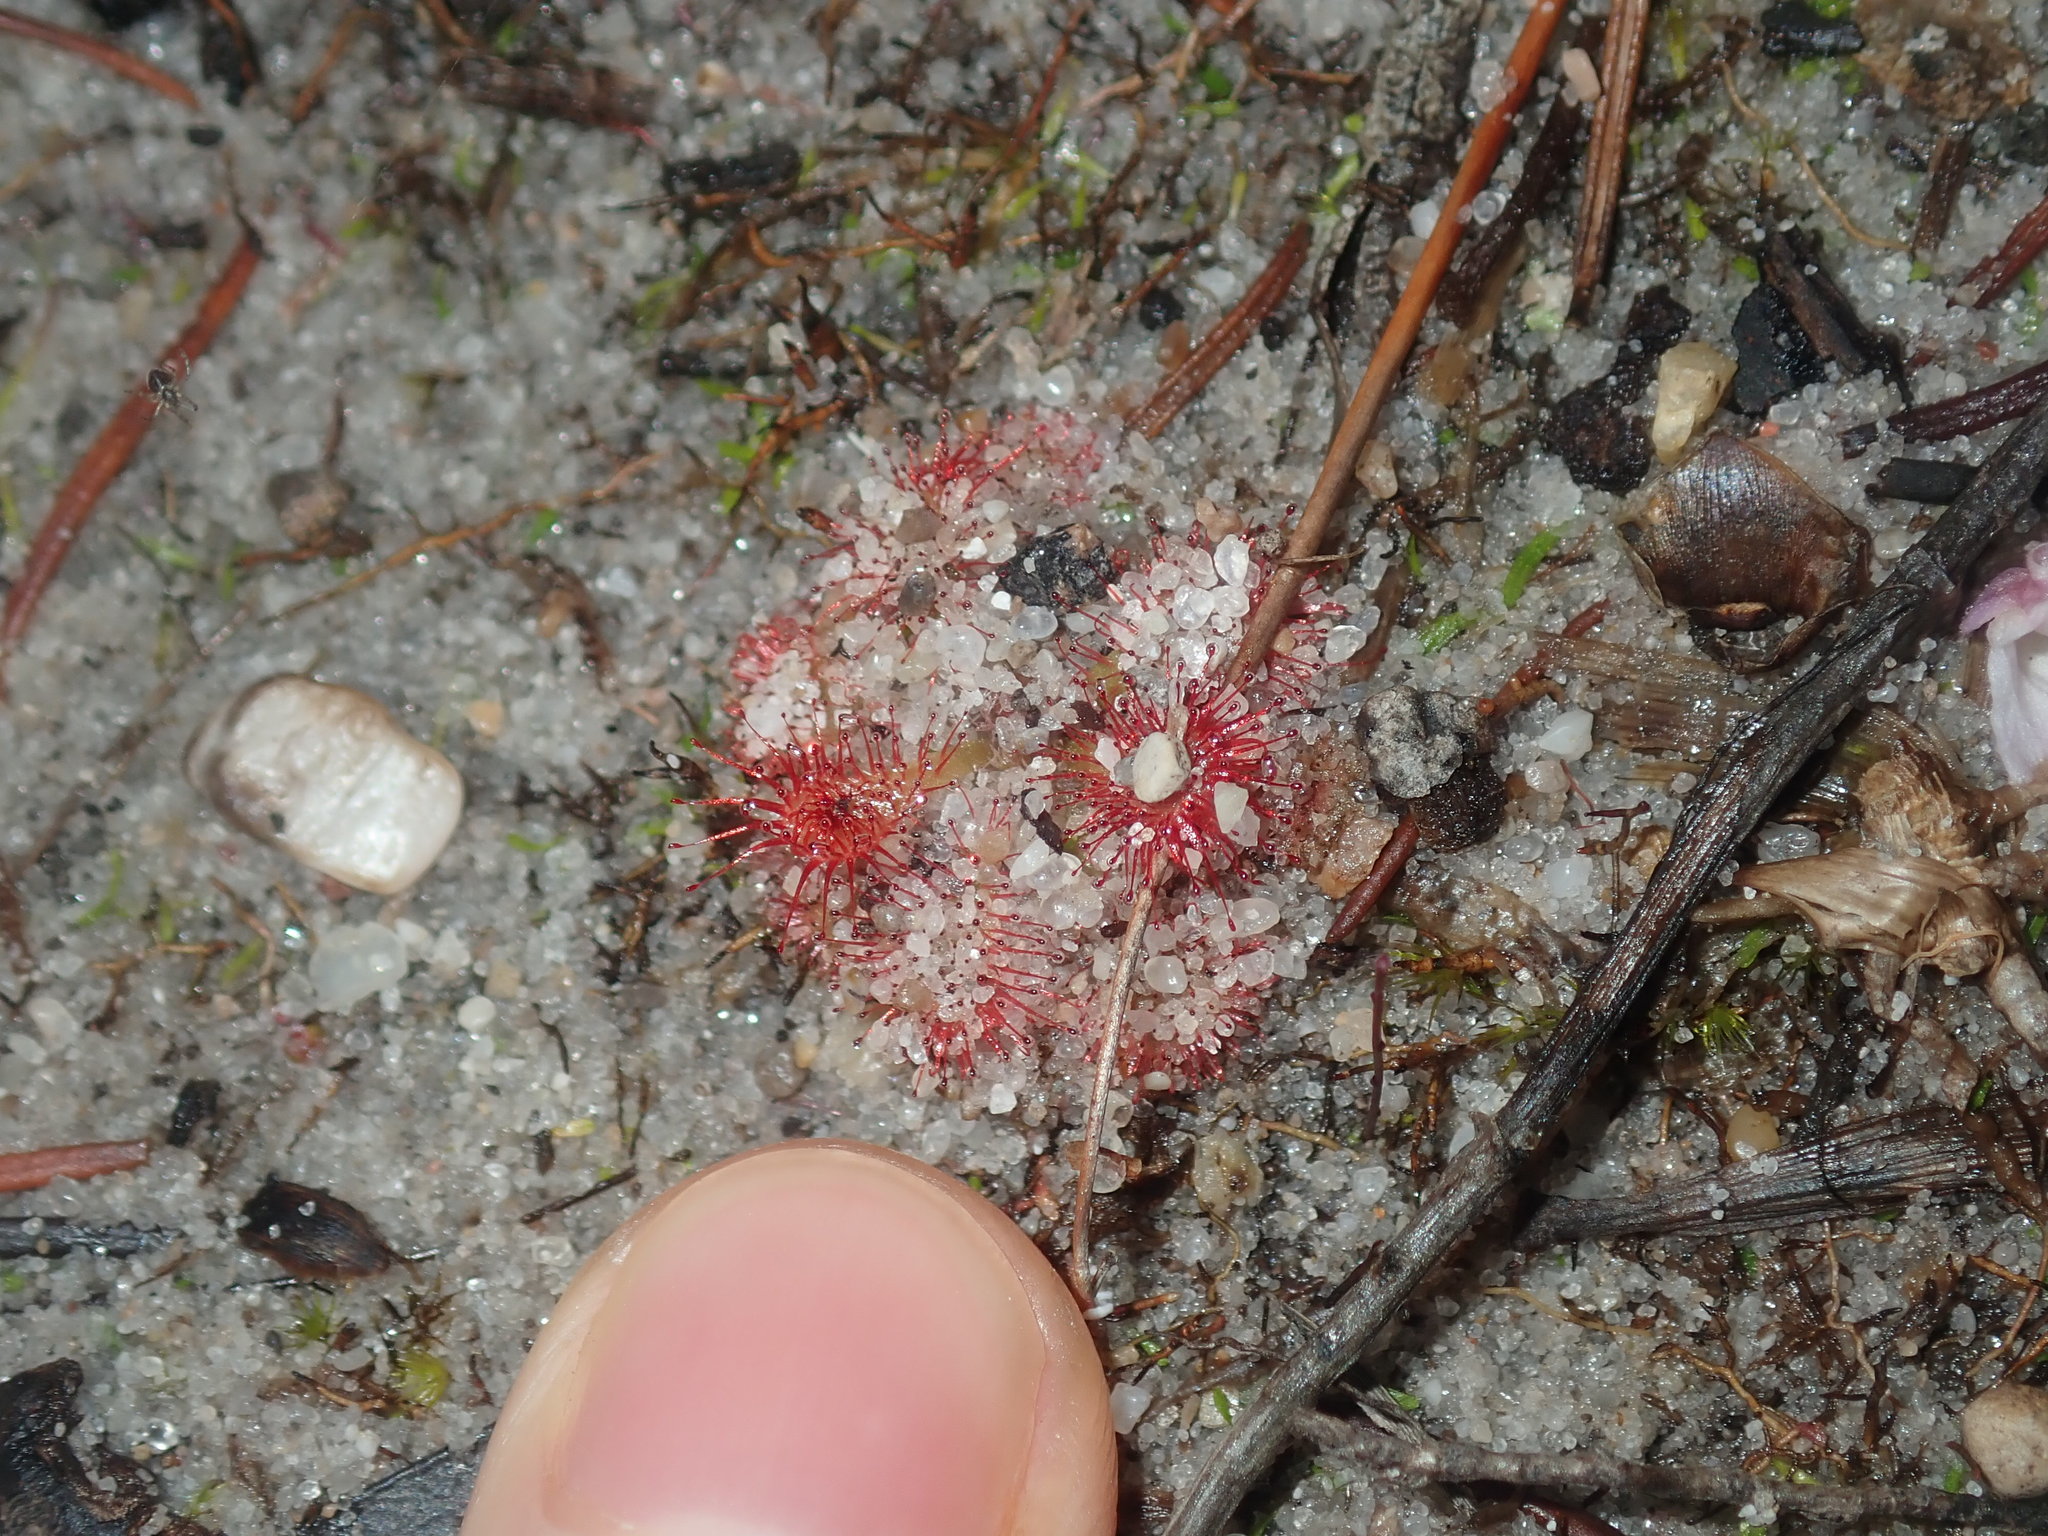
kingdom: Plantae
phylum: Tracheophyta
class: Magnoliopsida
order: Caryophyllales
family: Droseraceae
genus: Drosera
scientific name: Drosera spatulata
